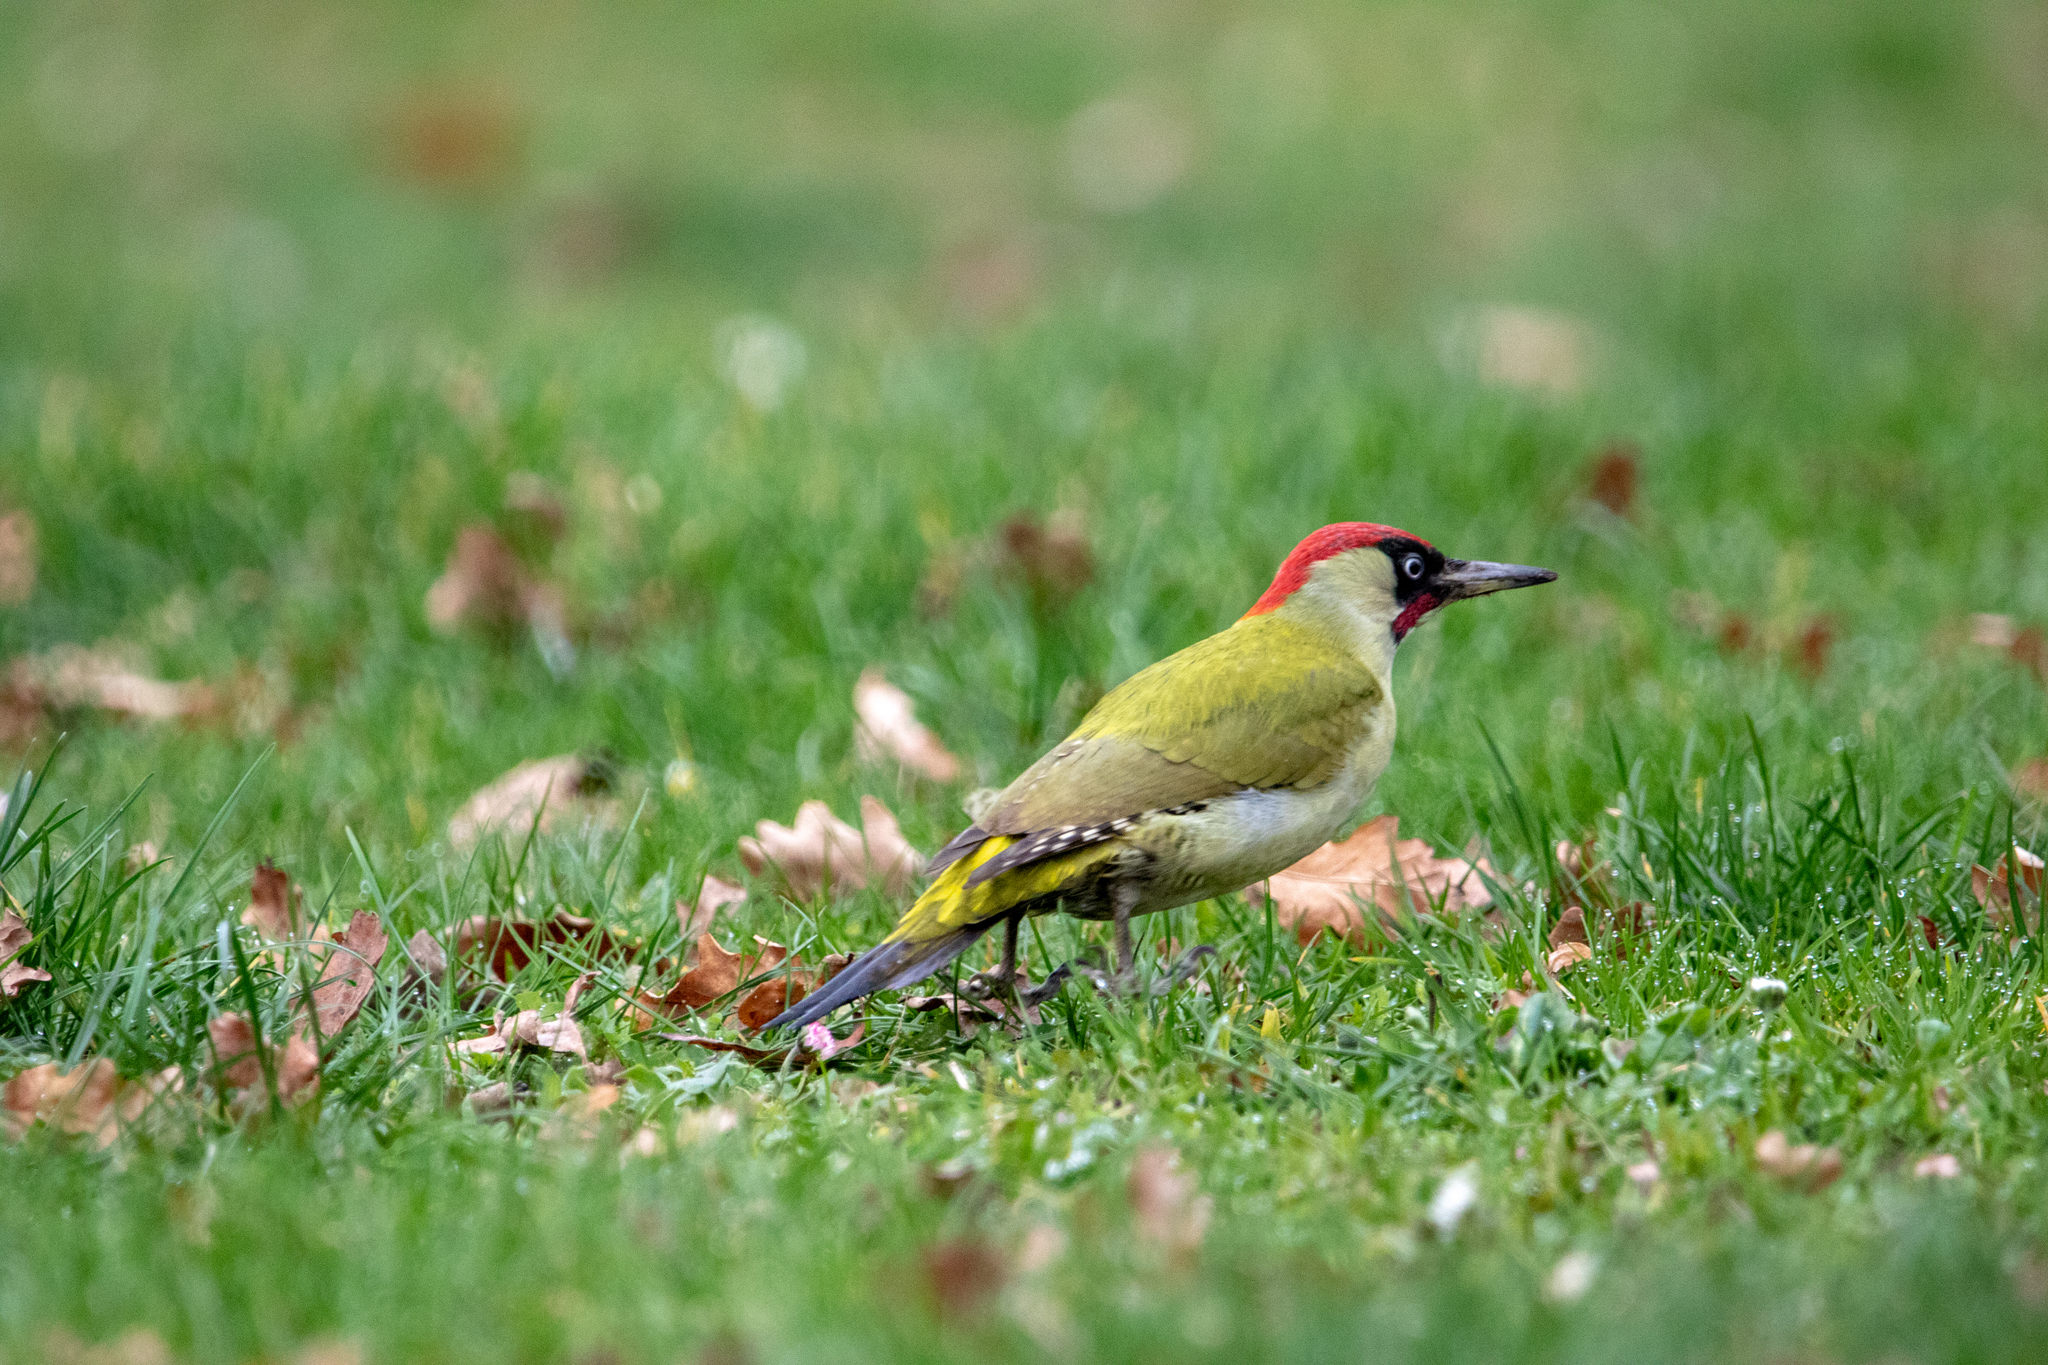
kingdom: Animalia
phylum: Chordata
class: Aves
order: Piciformes
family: Picidae
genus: Picus
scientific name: Picus viridis
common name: European green woodpecker
